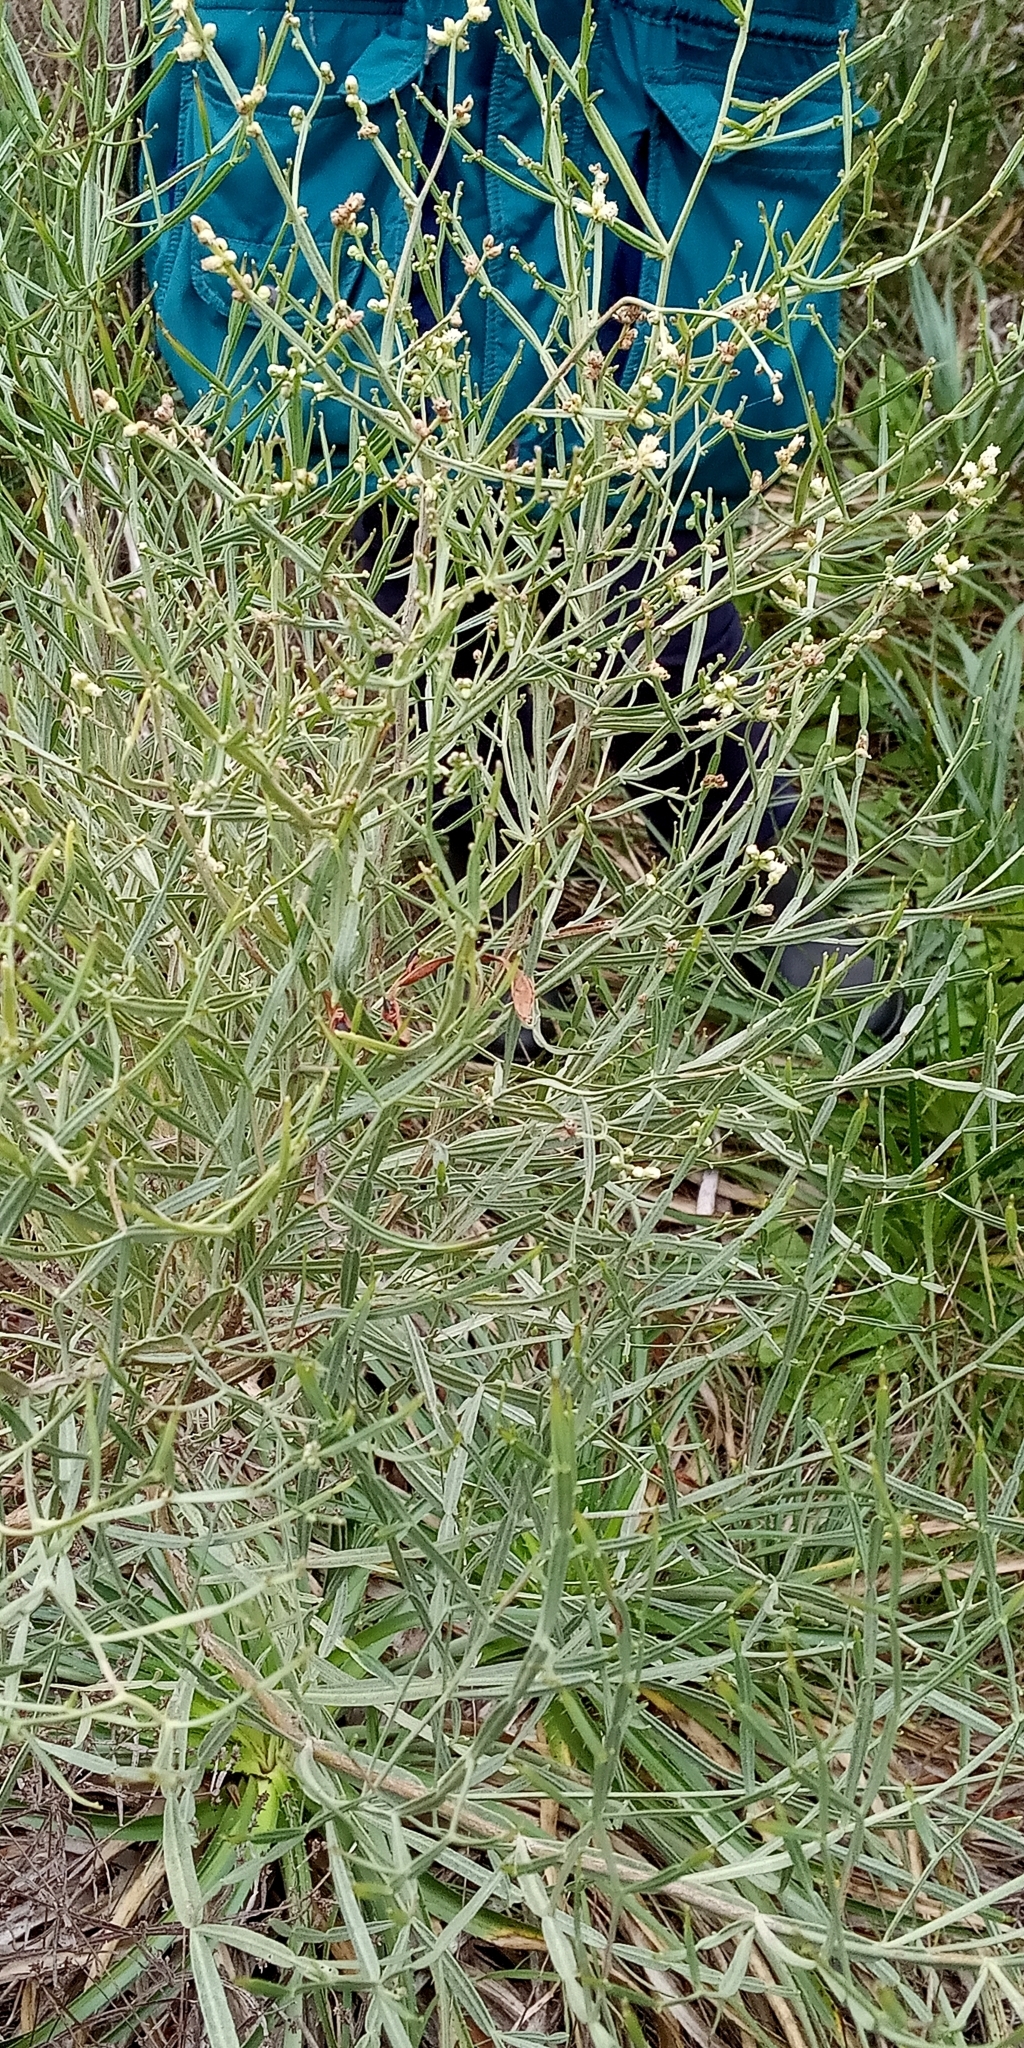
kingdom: Plantae
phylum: Tracheophyta
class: Magnoliopsida
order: Asterales
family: Asteraceae
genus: Baccharis
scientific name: Baccharis articulata
